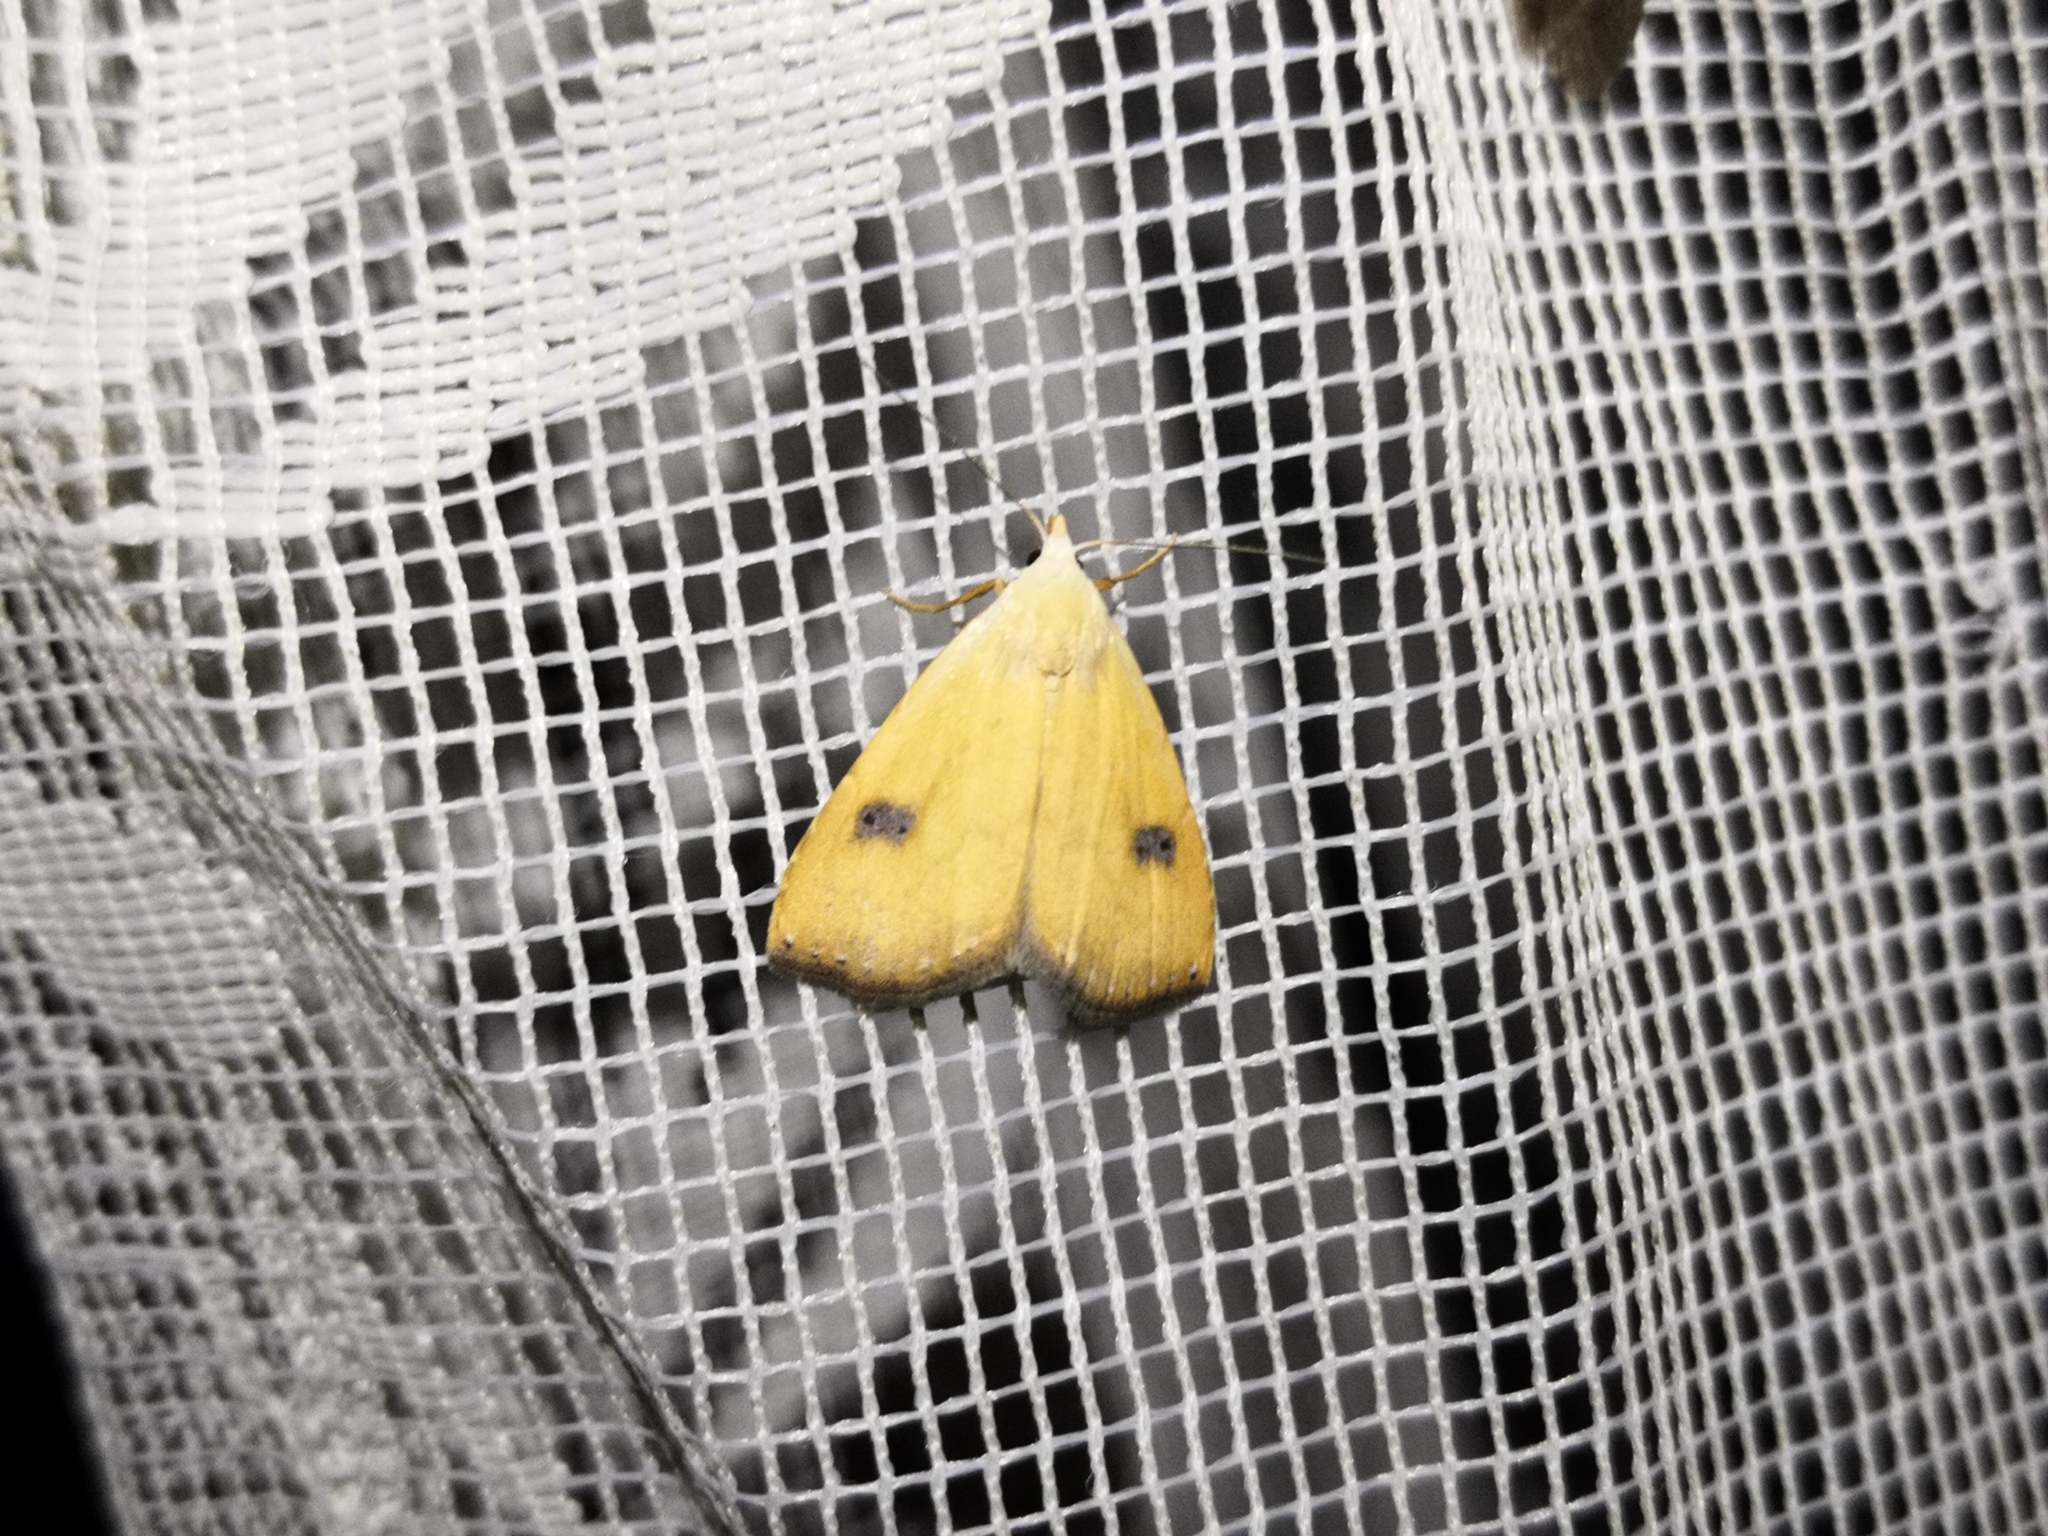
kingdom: Animalia
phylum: Arthropoda
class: Insecta
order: Lepidoptera
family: Erebidae
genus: Rivula
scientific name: Rivula sericealis
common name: Straw dot
